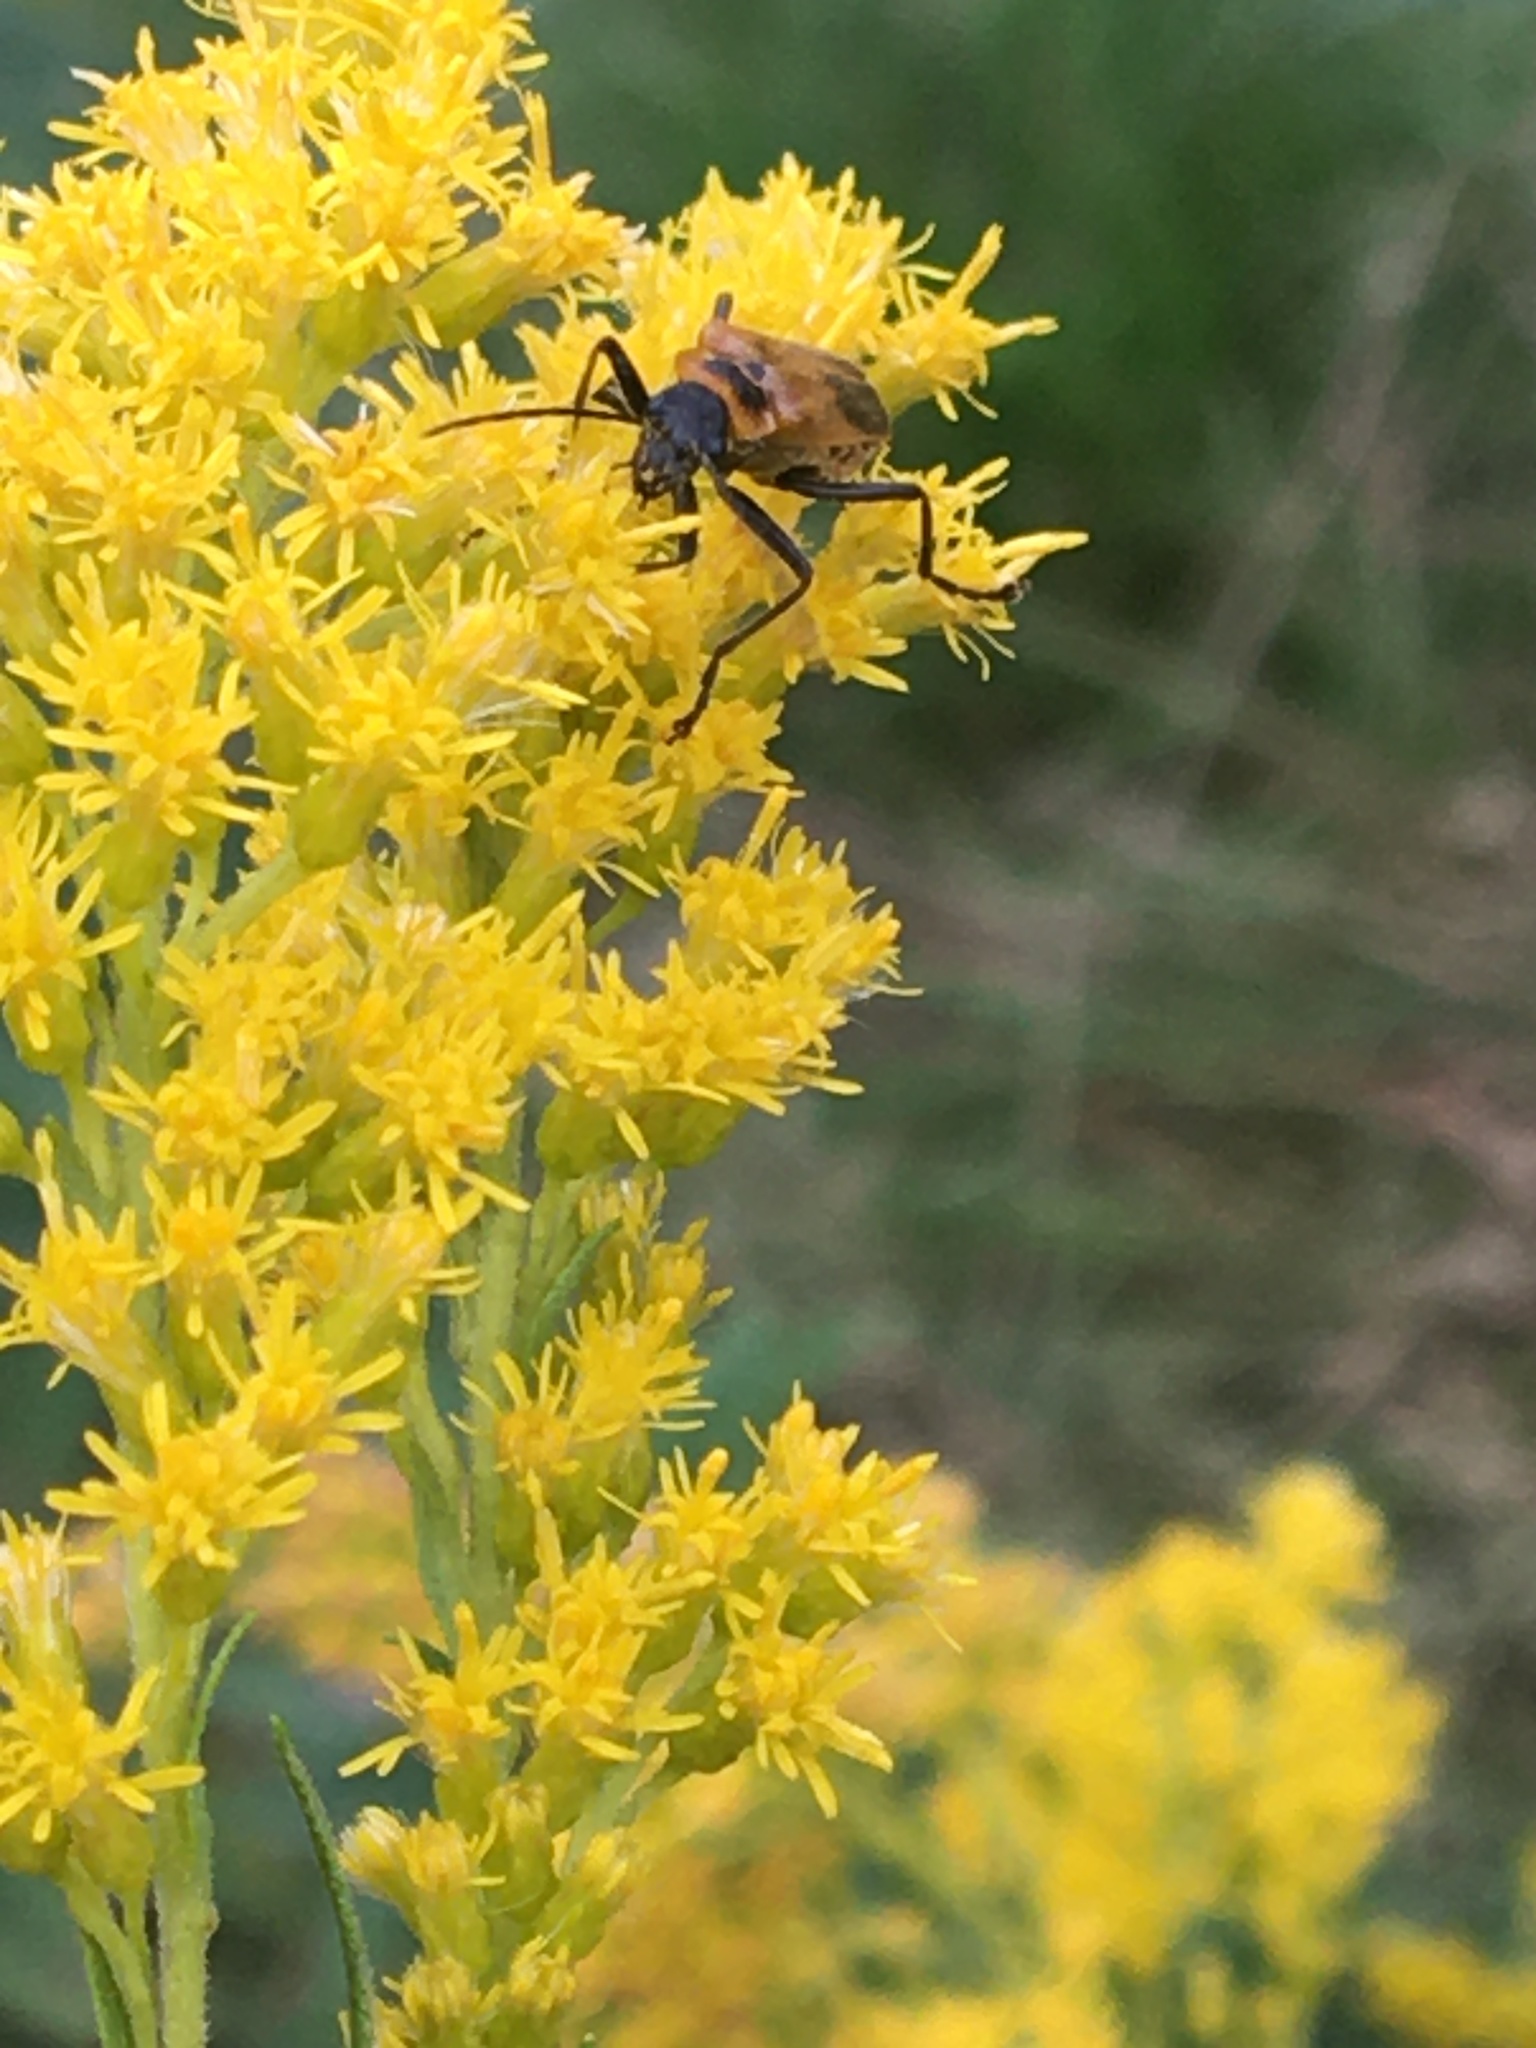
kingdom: Animalia
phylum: Arthropoda
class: Insecta
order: Coleoptera
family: Cantharidae
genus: Chauliognathus
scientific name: Chauliognathus pensylvanicus
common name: Goldenrod soldier beetle
